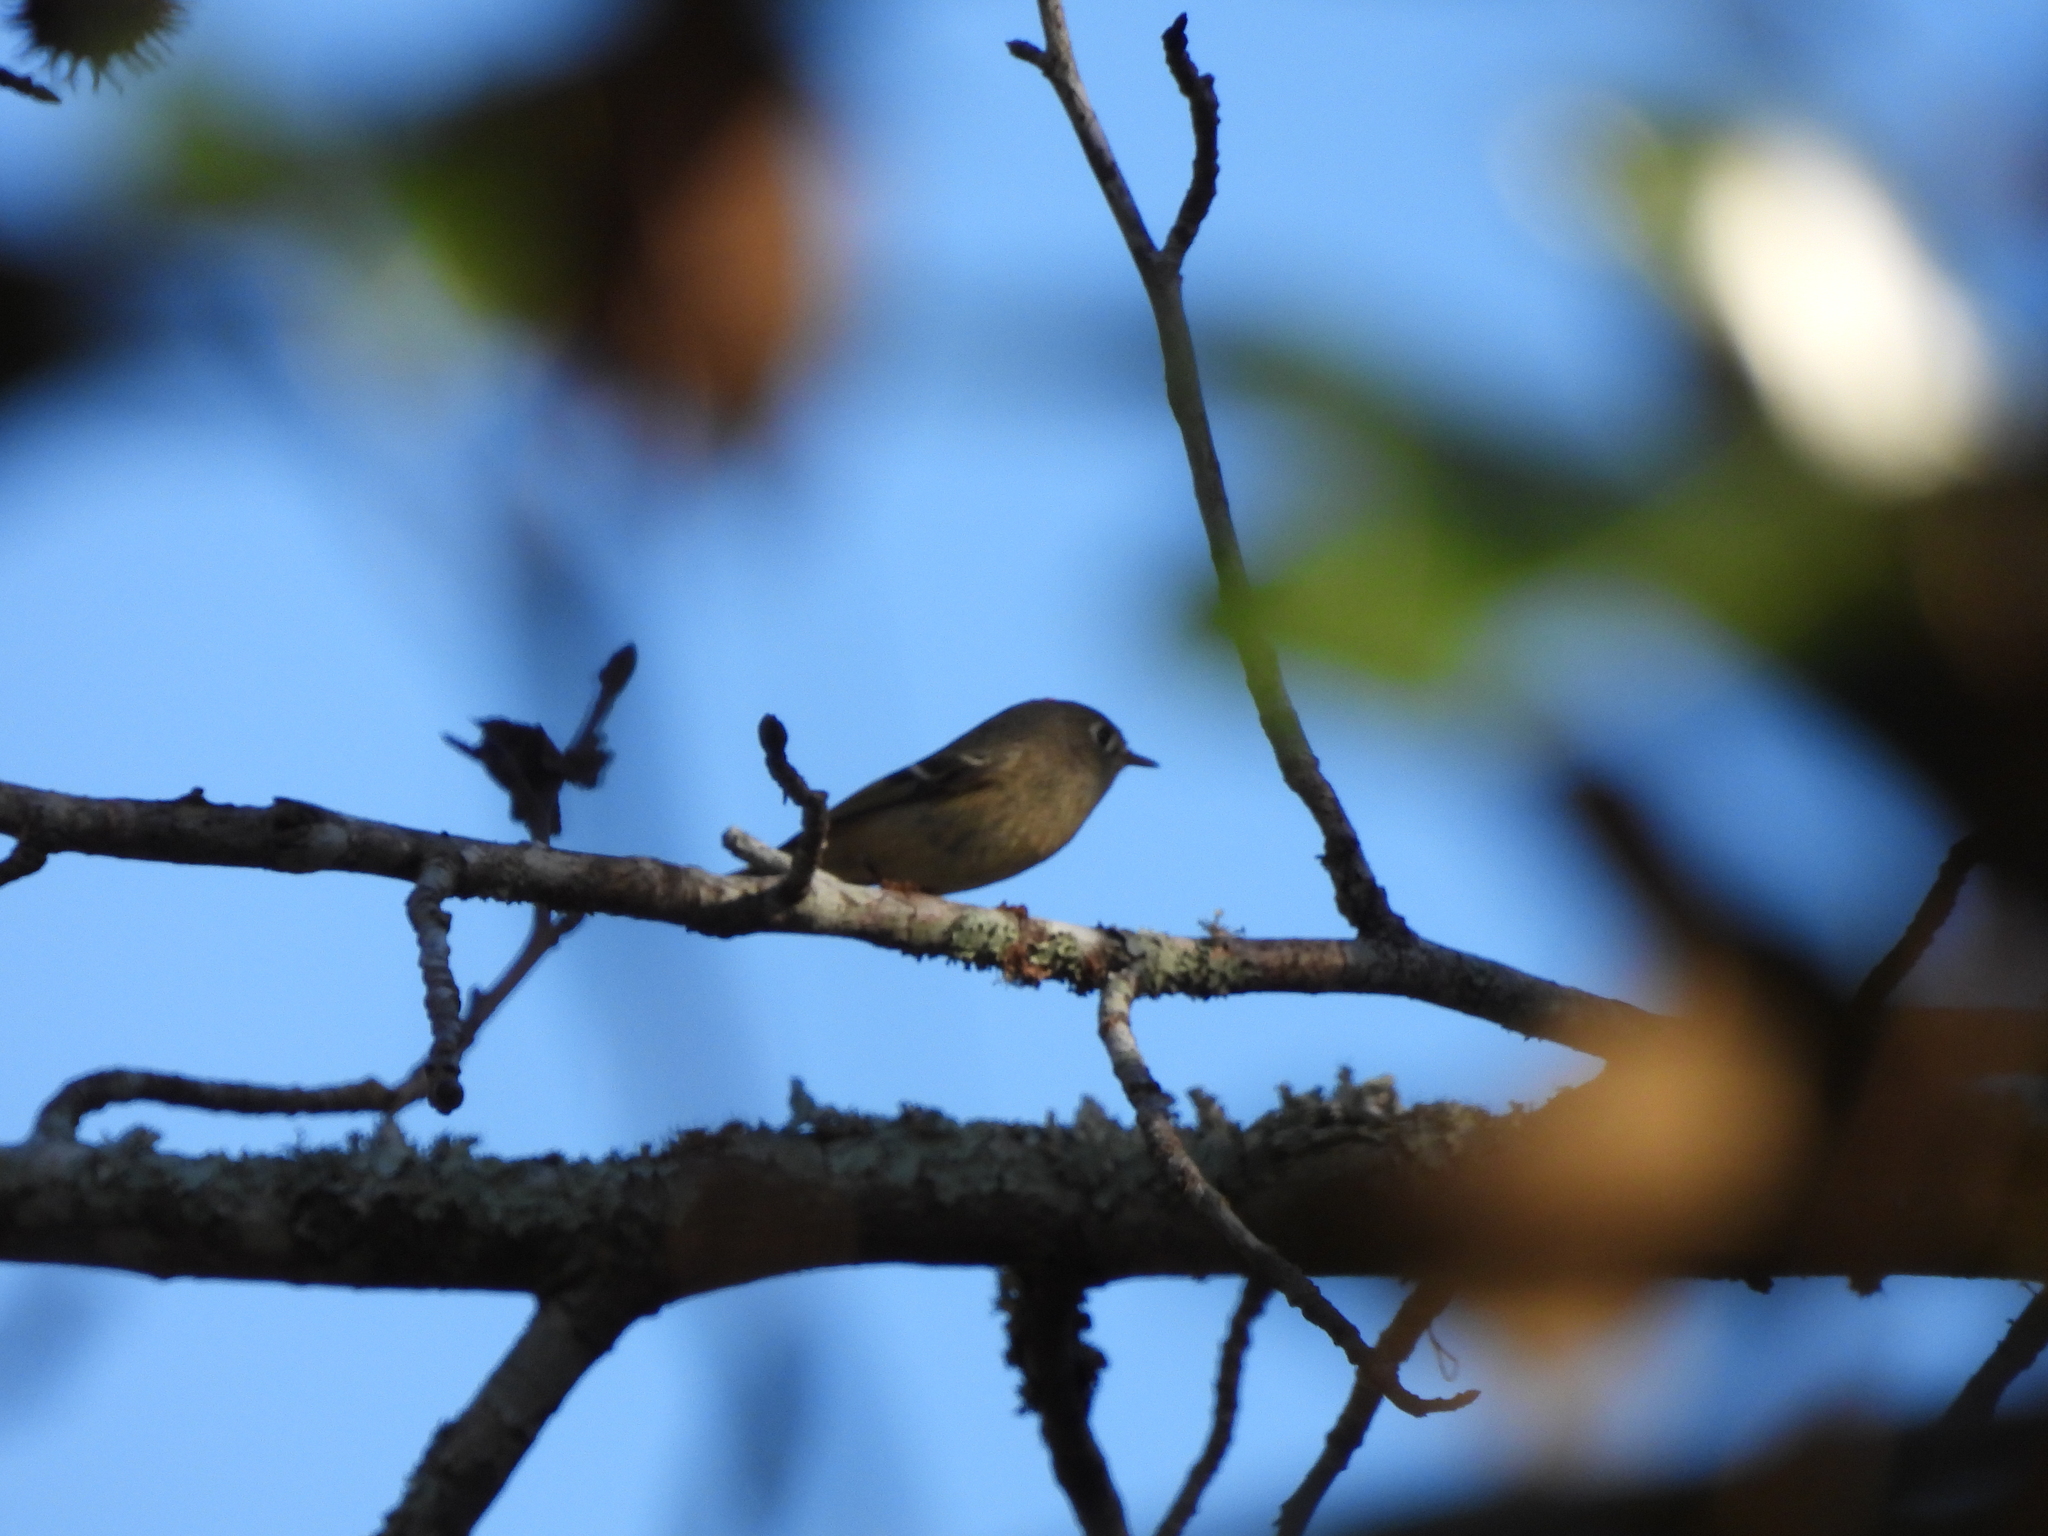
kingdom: Animalia
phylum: Chordata
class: Aves
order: Passeriformes
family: Regulidae
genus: Regulus
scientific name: Regulus calendula
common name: Ruby-crowned kinglet
